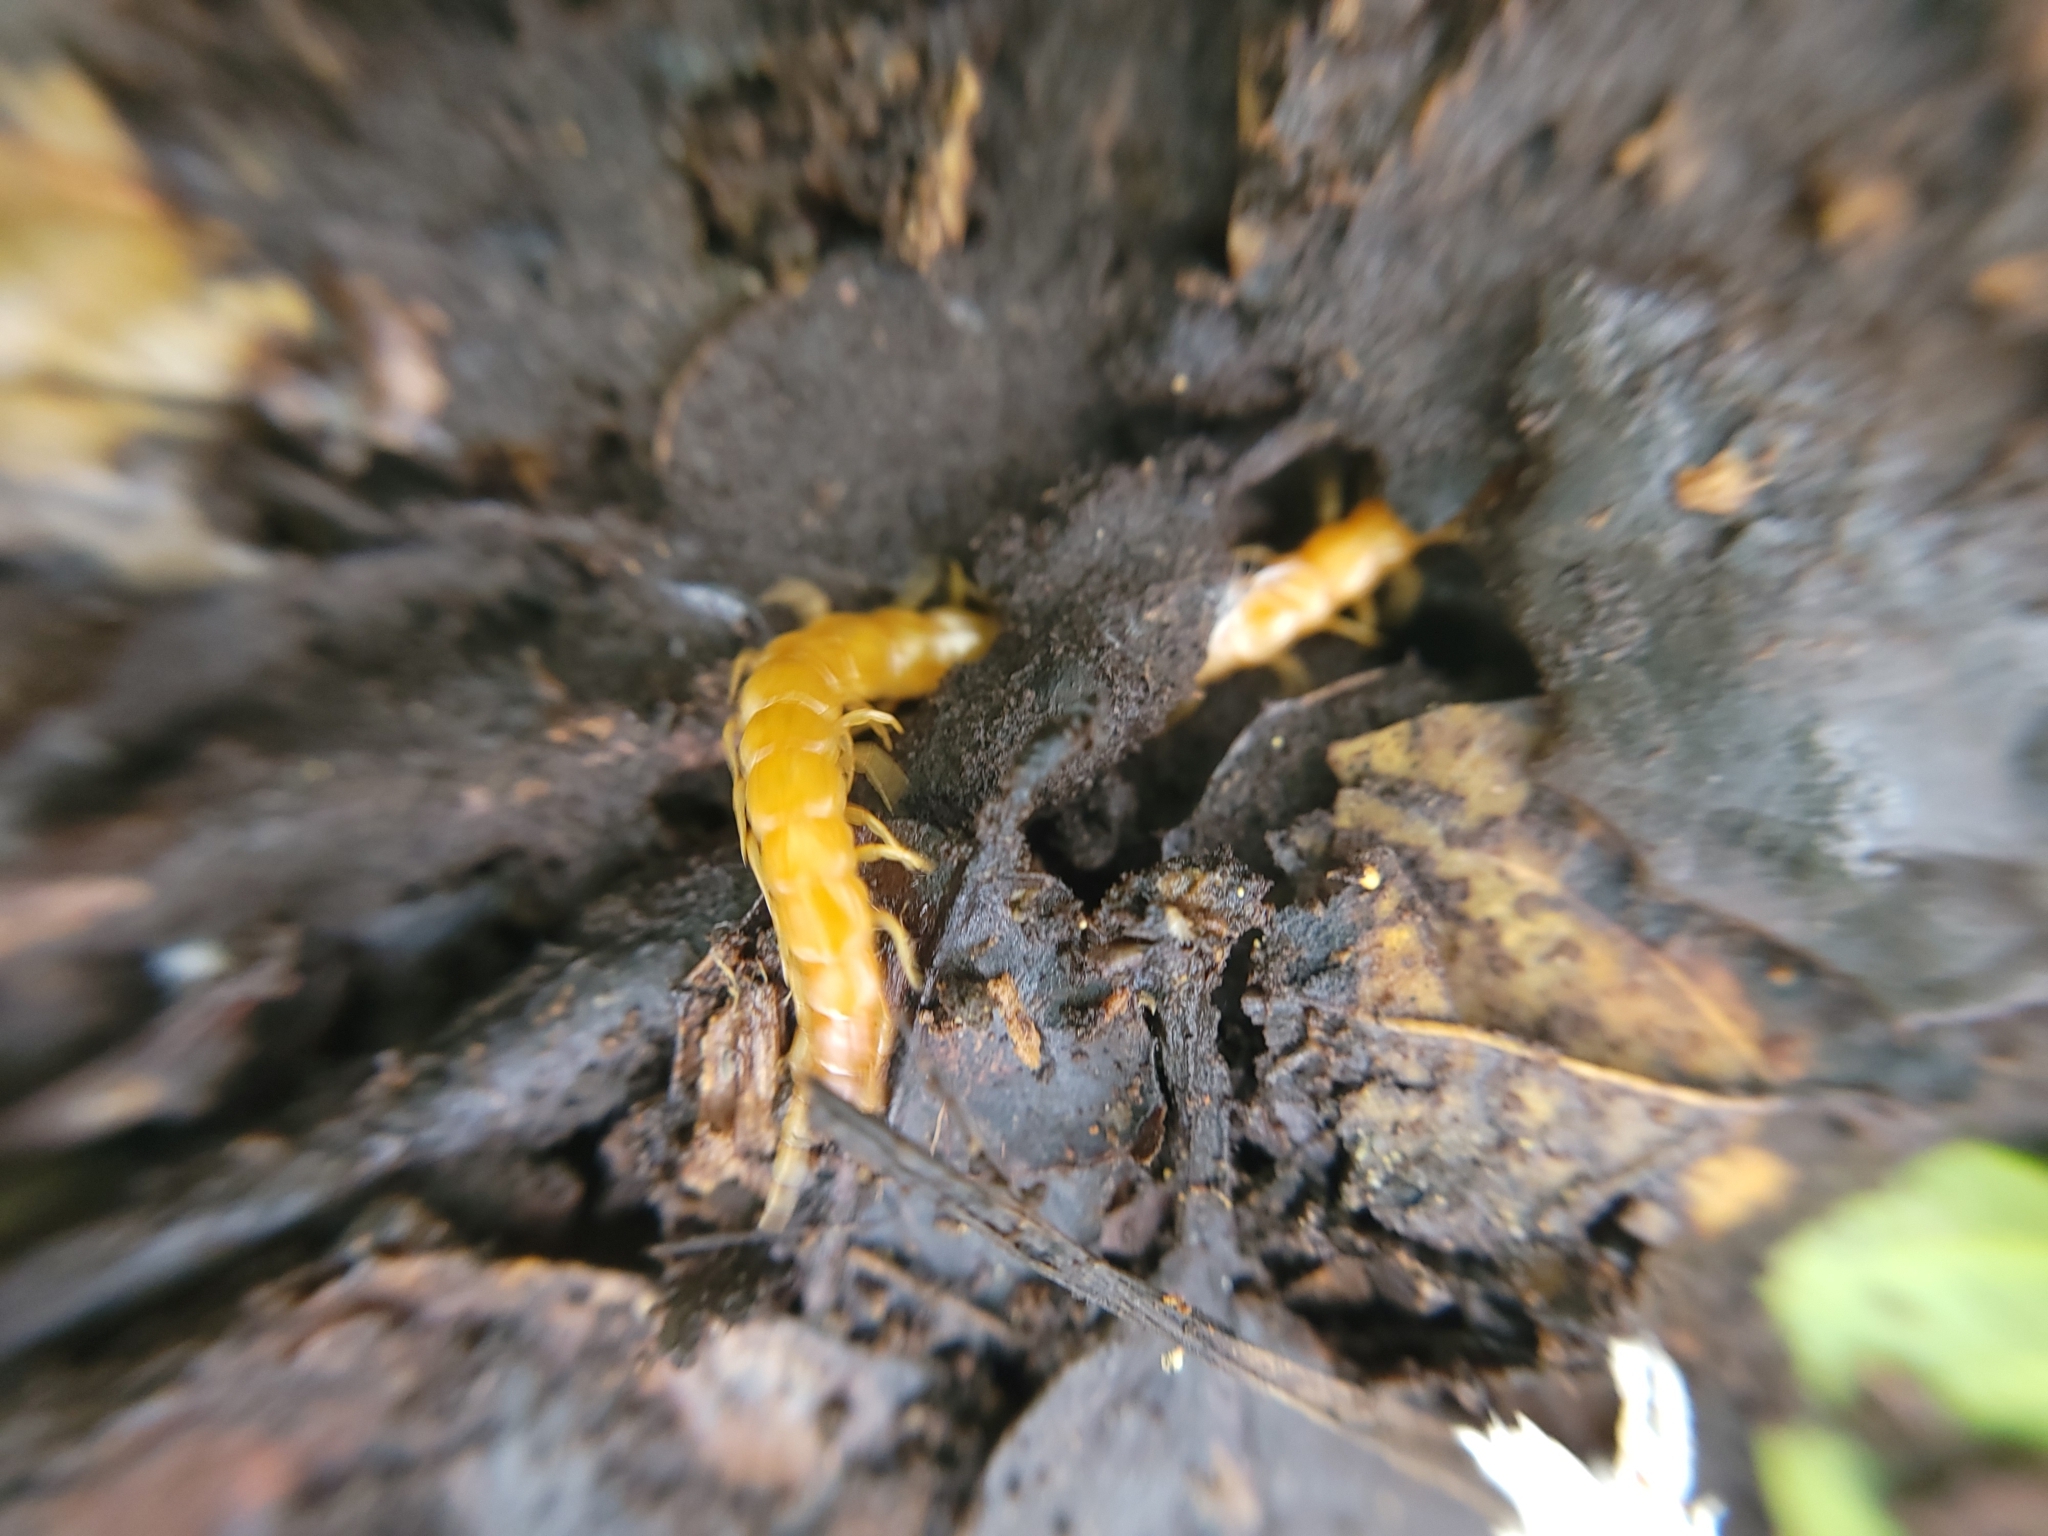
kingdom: Animalia
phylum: Arthropoda
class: Chilopoda
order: Scolopendromorpha
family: Scolopocryptopidae
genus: Scolopocryptops
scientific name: Scolopocryptops gracilis
